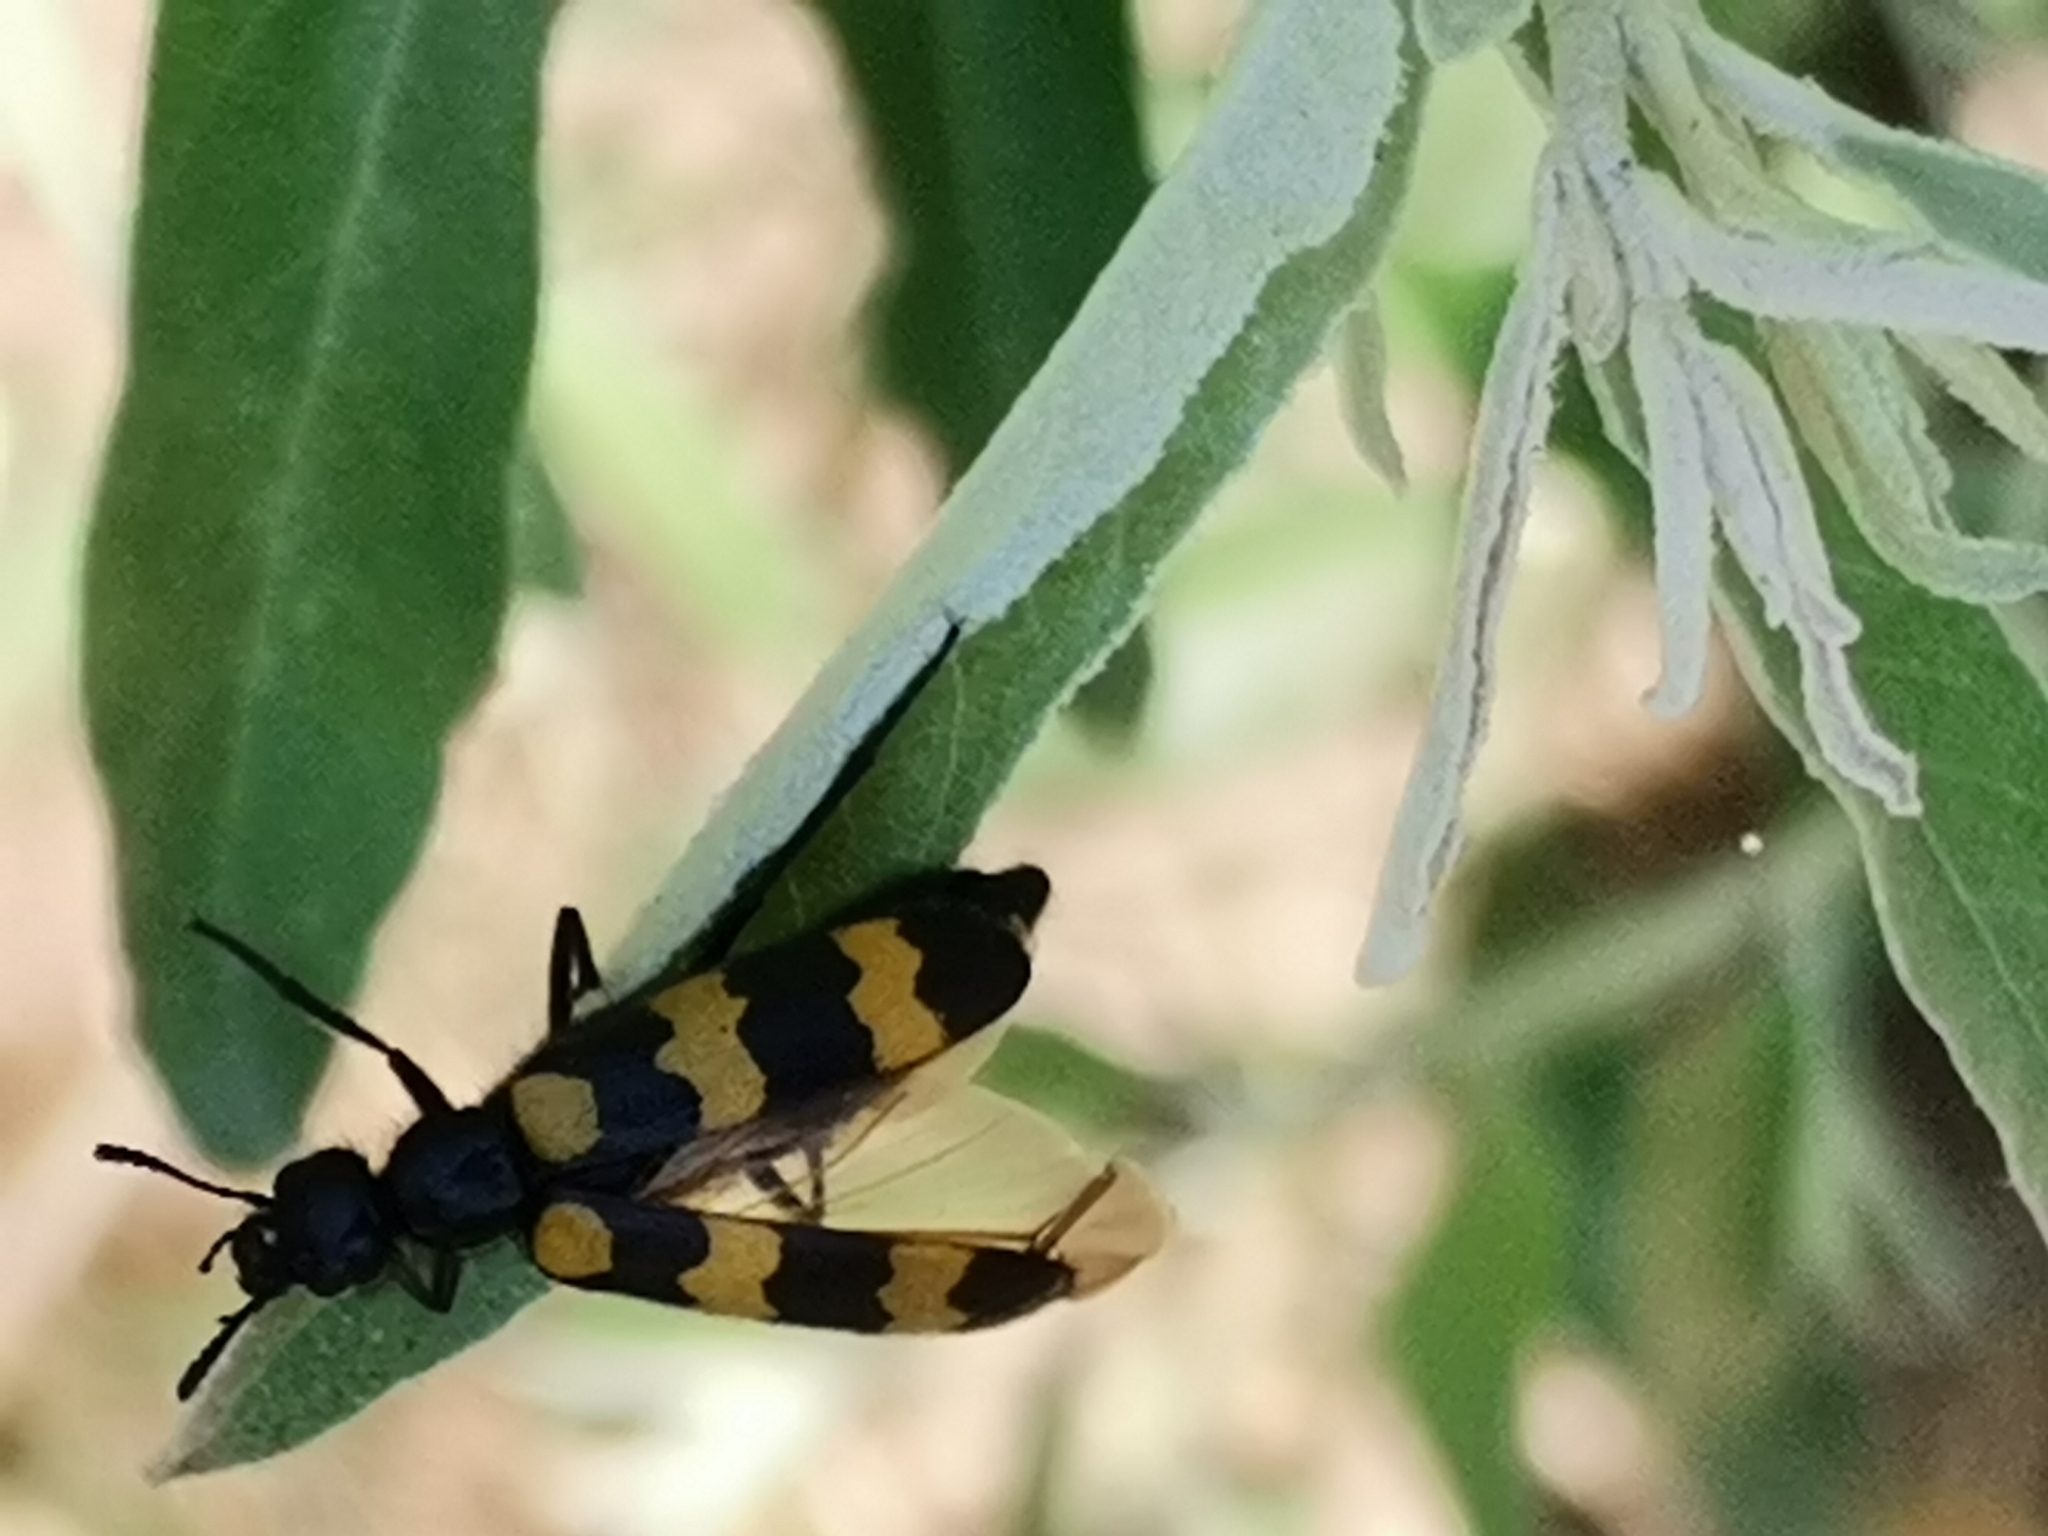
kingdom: Animalia
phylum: Arthropoda
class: Insecta
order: Coleoptera
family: Meloidae
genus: Mylabris
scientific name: Mylabris variabilis
